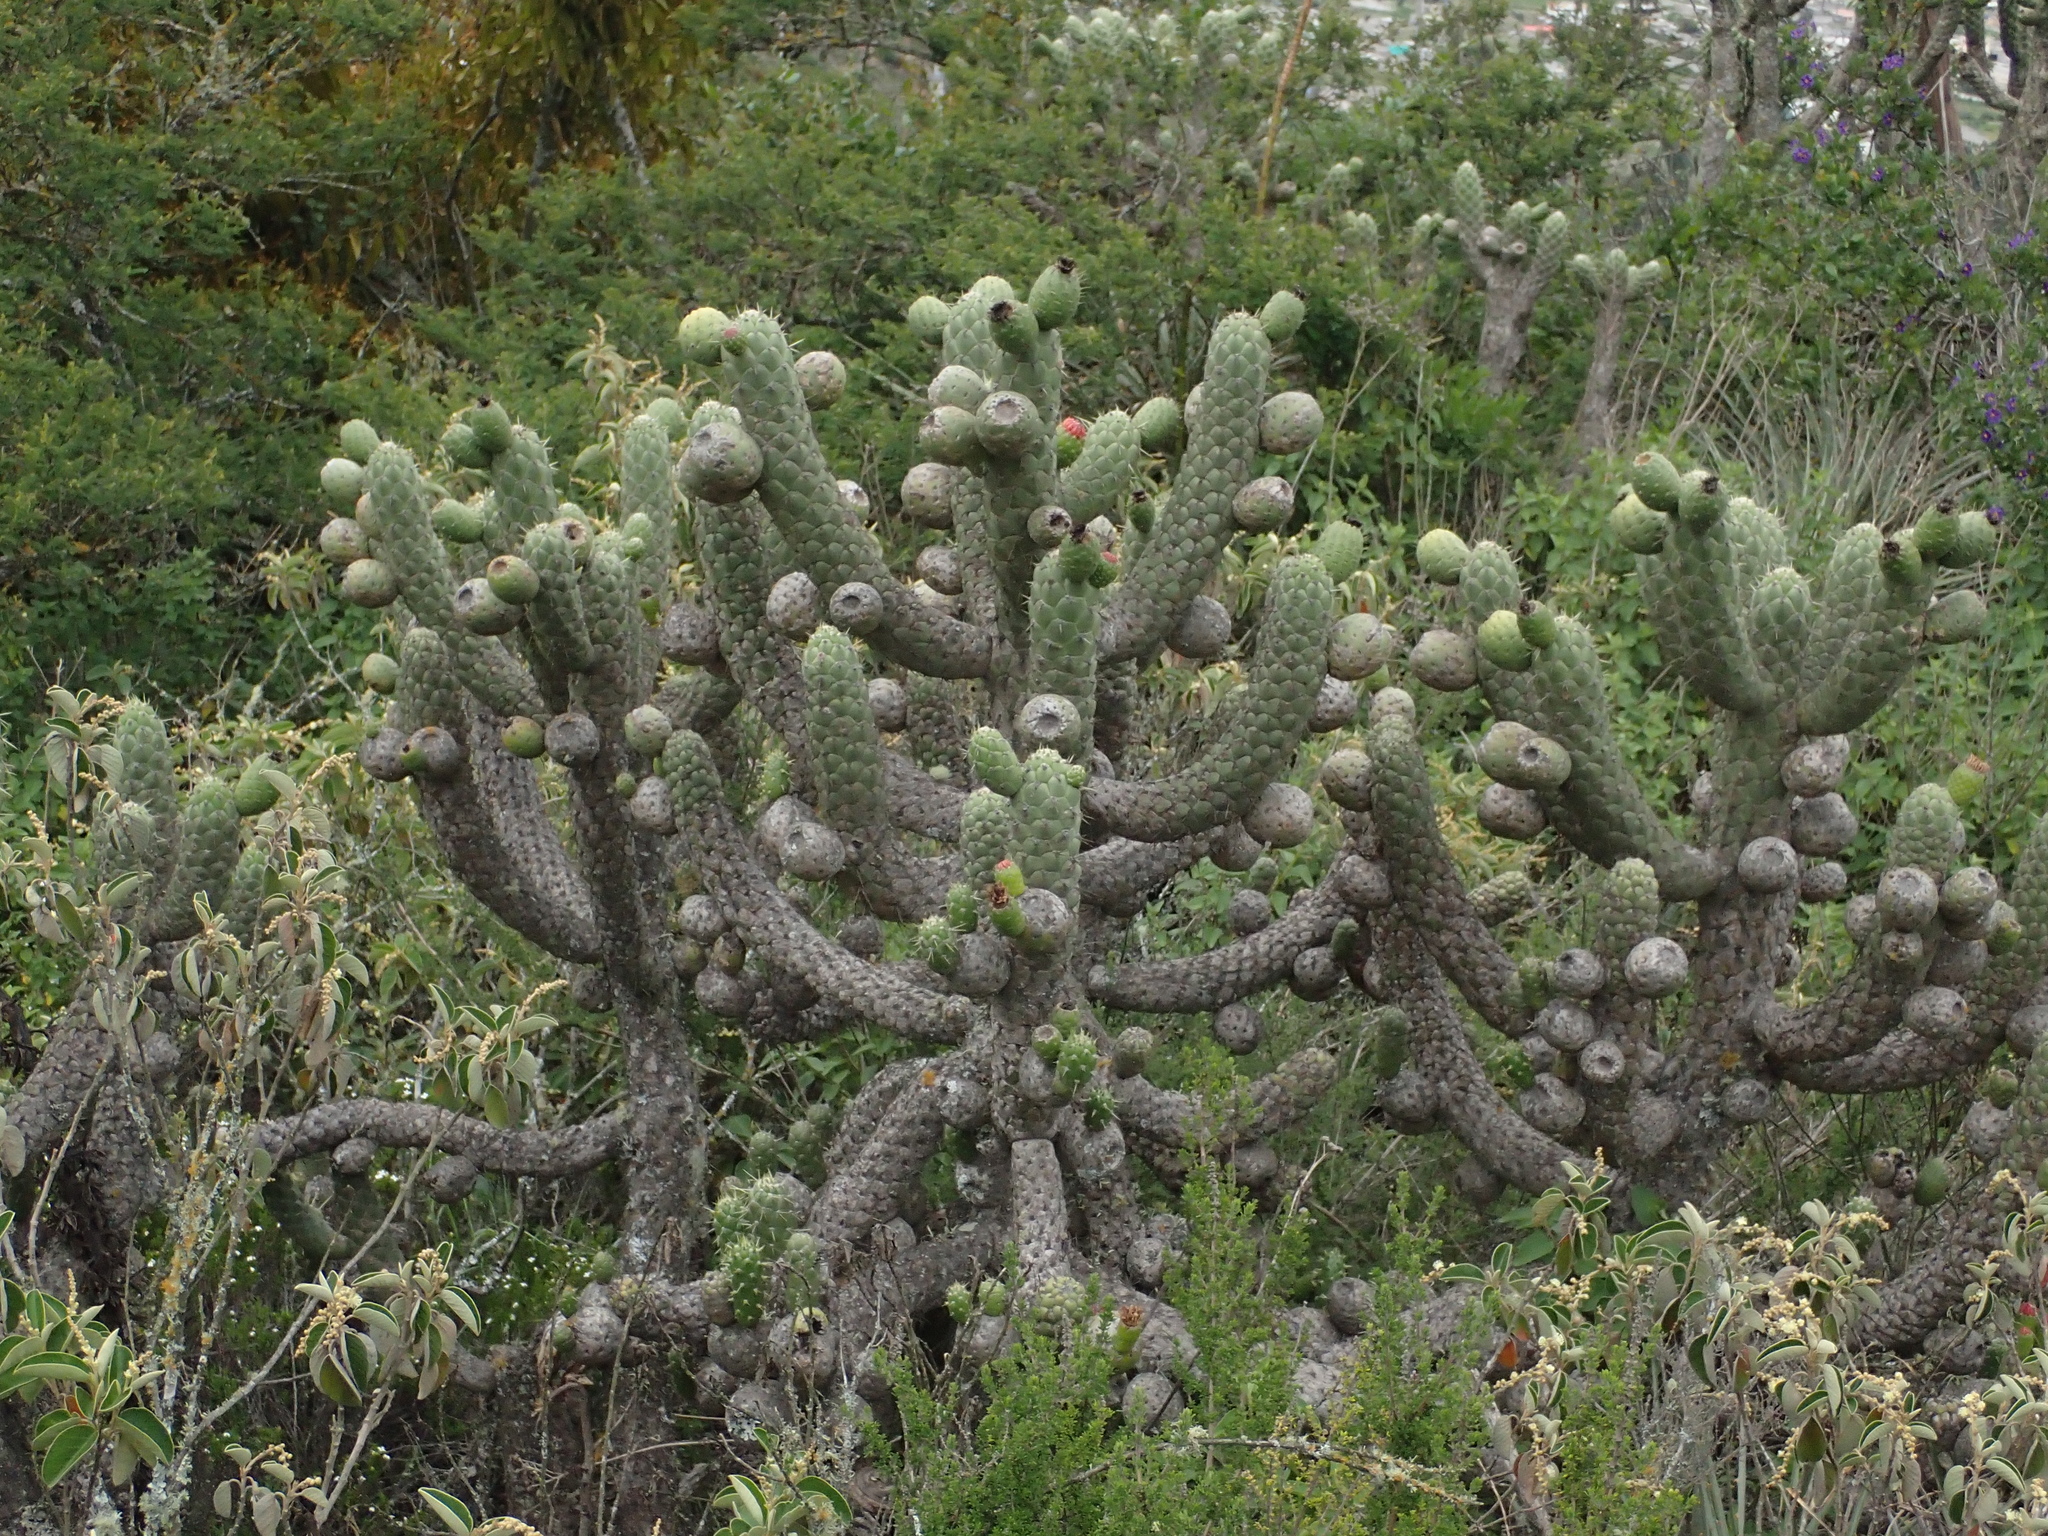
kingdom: Plantae
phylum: Tracheophyta
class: Magnoliopsida
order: Caryophyllales
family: Cactaceae
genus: Austrocylindropuntia
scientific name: Austrocylindropuntia cylindrica
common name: Cane cactus
